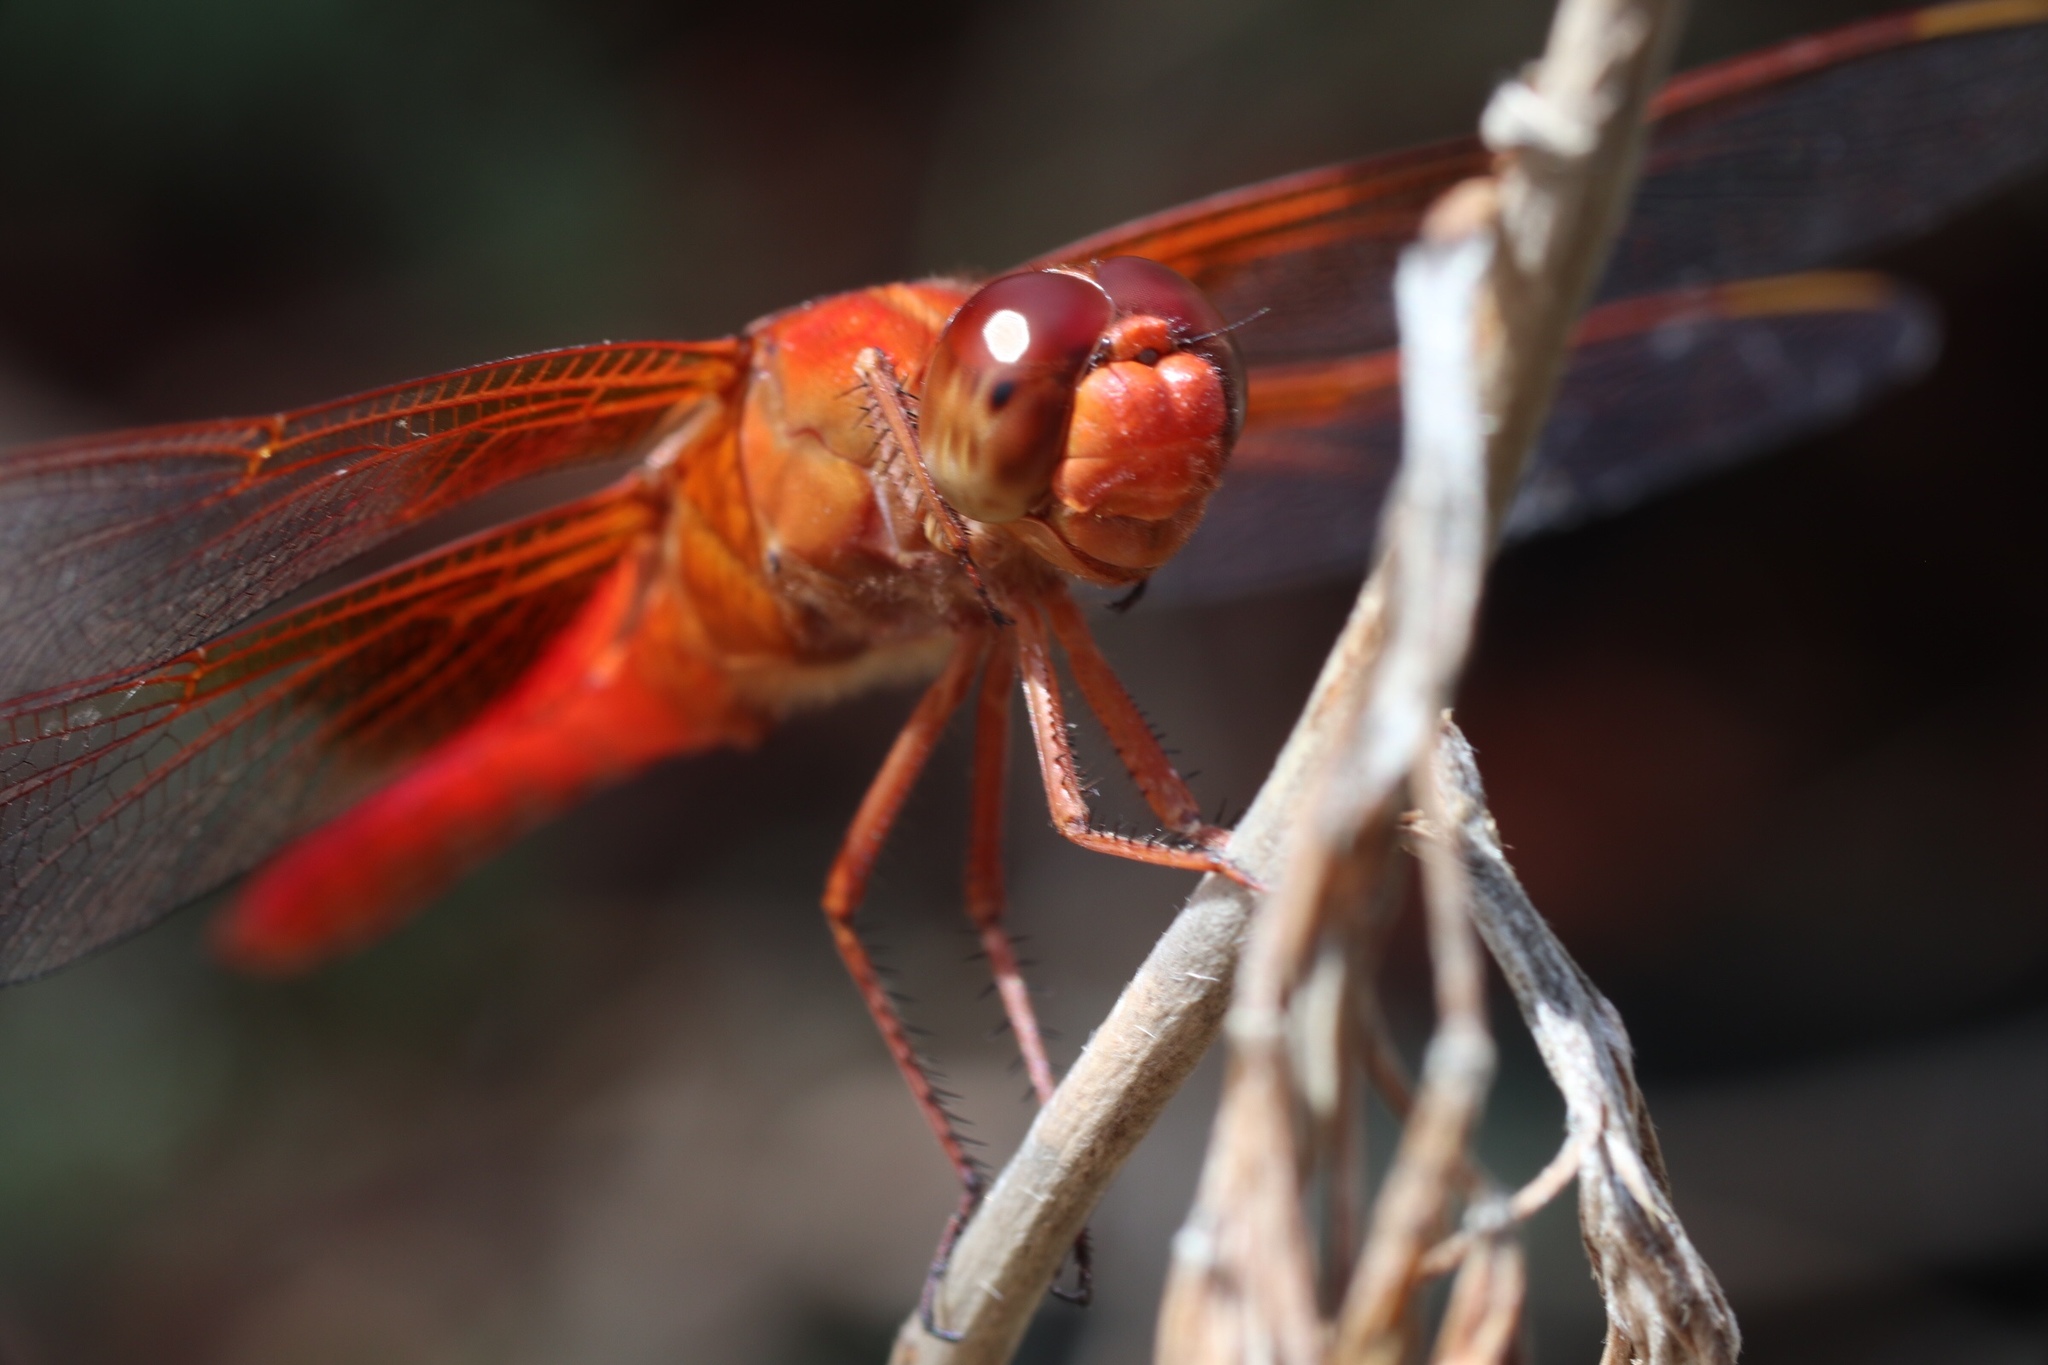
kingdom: Animalia
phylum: Arthropoda
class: Insecta
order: Odonata
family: Libellulidae
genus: Libellula
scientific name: Libellula croceipennis
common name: Neon skimmer
